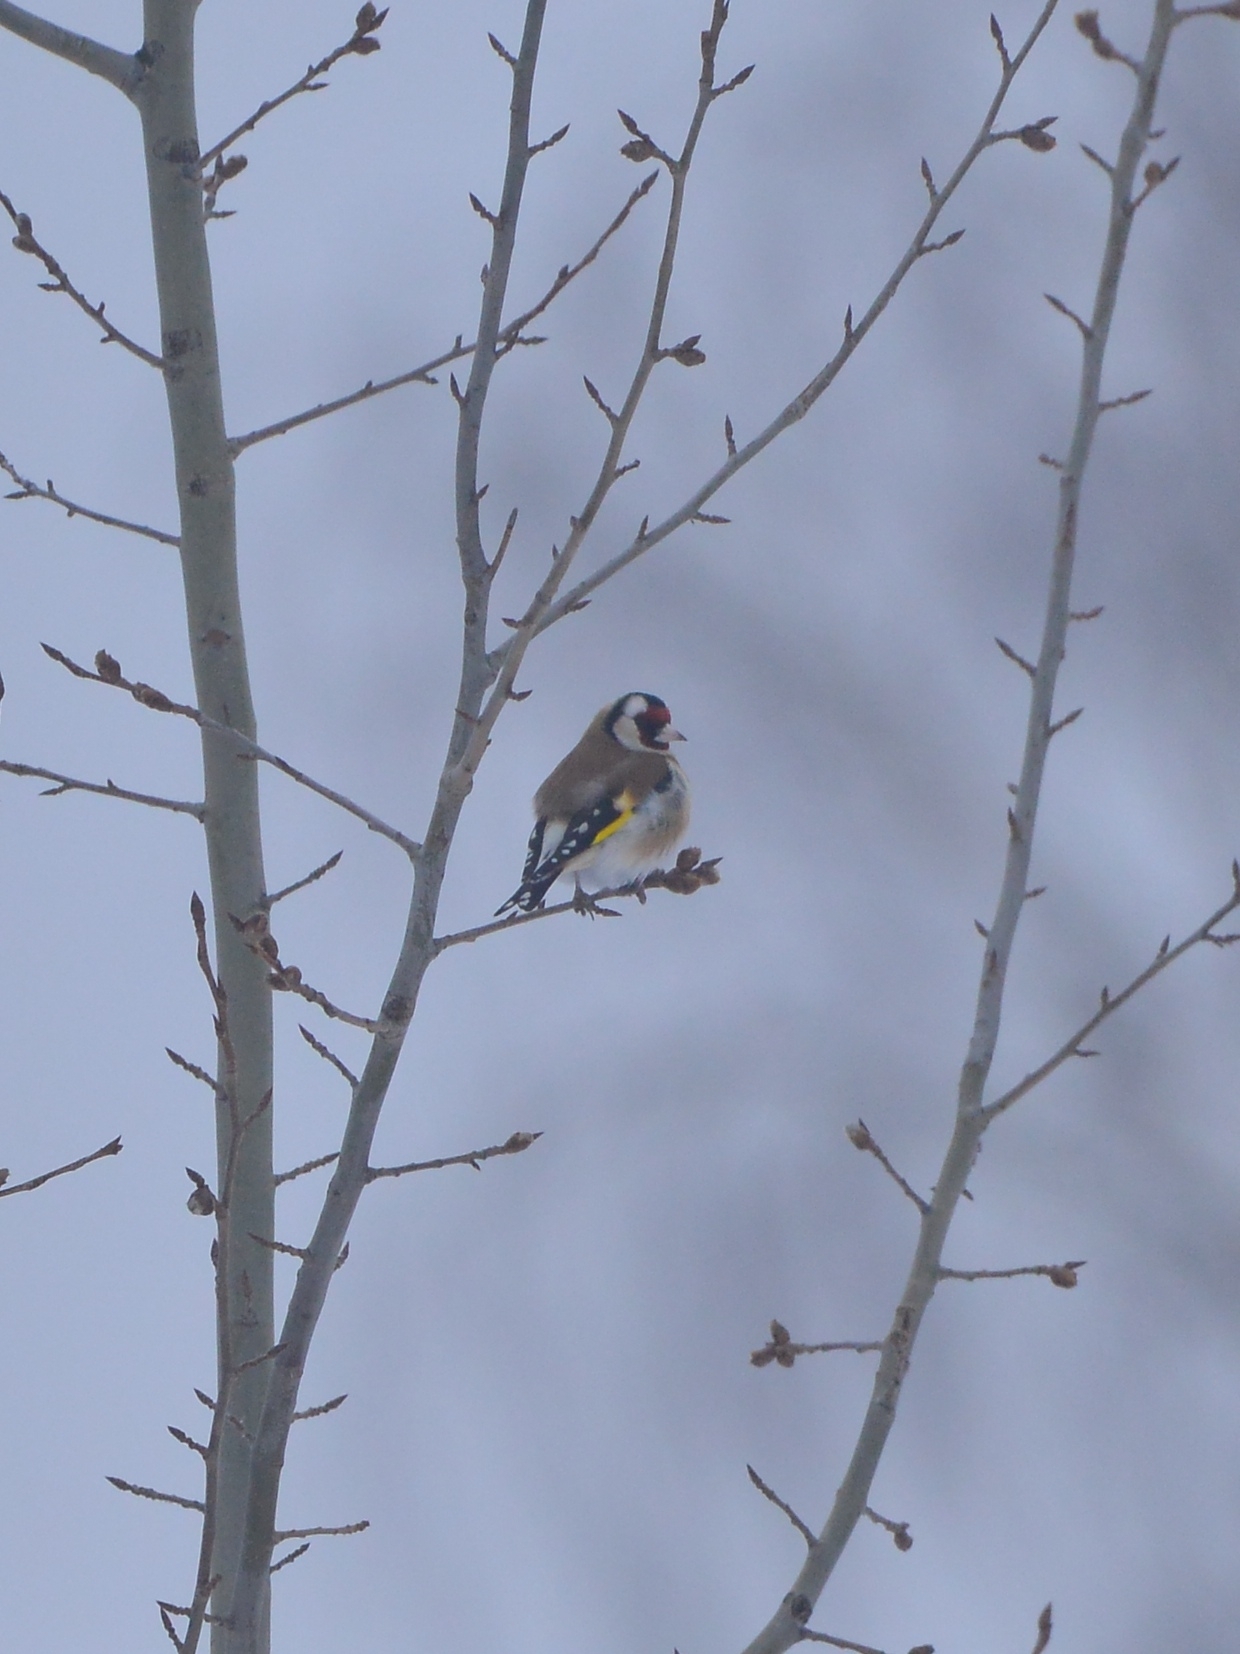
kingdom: Animalia
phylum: Chordata
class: Aves
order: Passeriformes
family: Fringillidae
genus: Carduelis
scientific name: Carduelis carduelis
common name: European goldfinch
